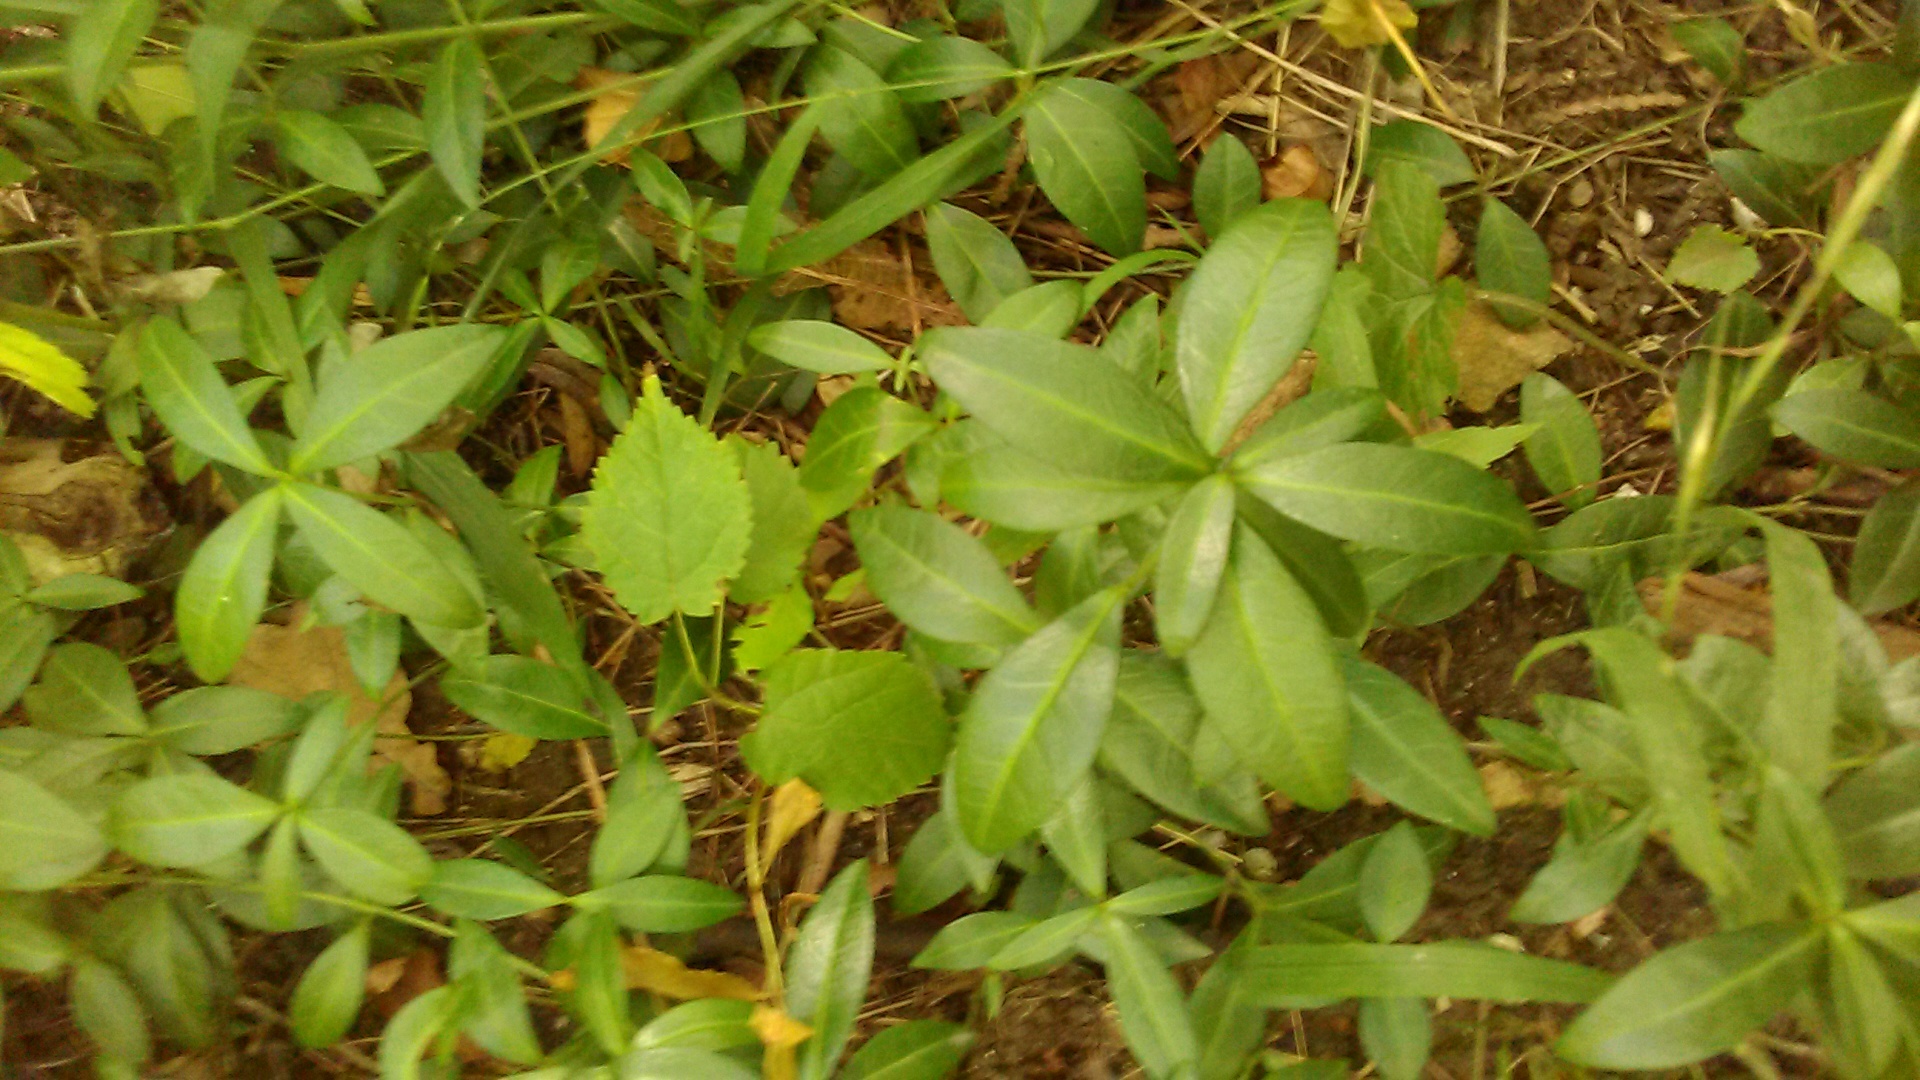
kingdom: Plantae
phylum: Tracheophyta
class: Magnoliopsida
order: Gentianales
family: Apocynaceae
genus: Vinca
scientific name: Vinca minor
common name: Lesser periwinkle
